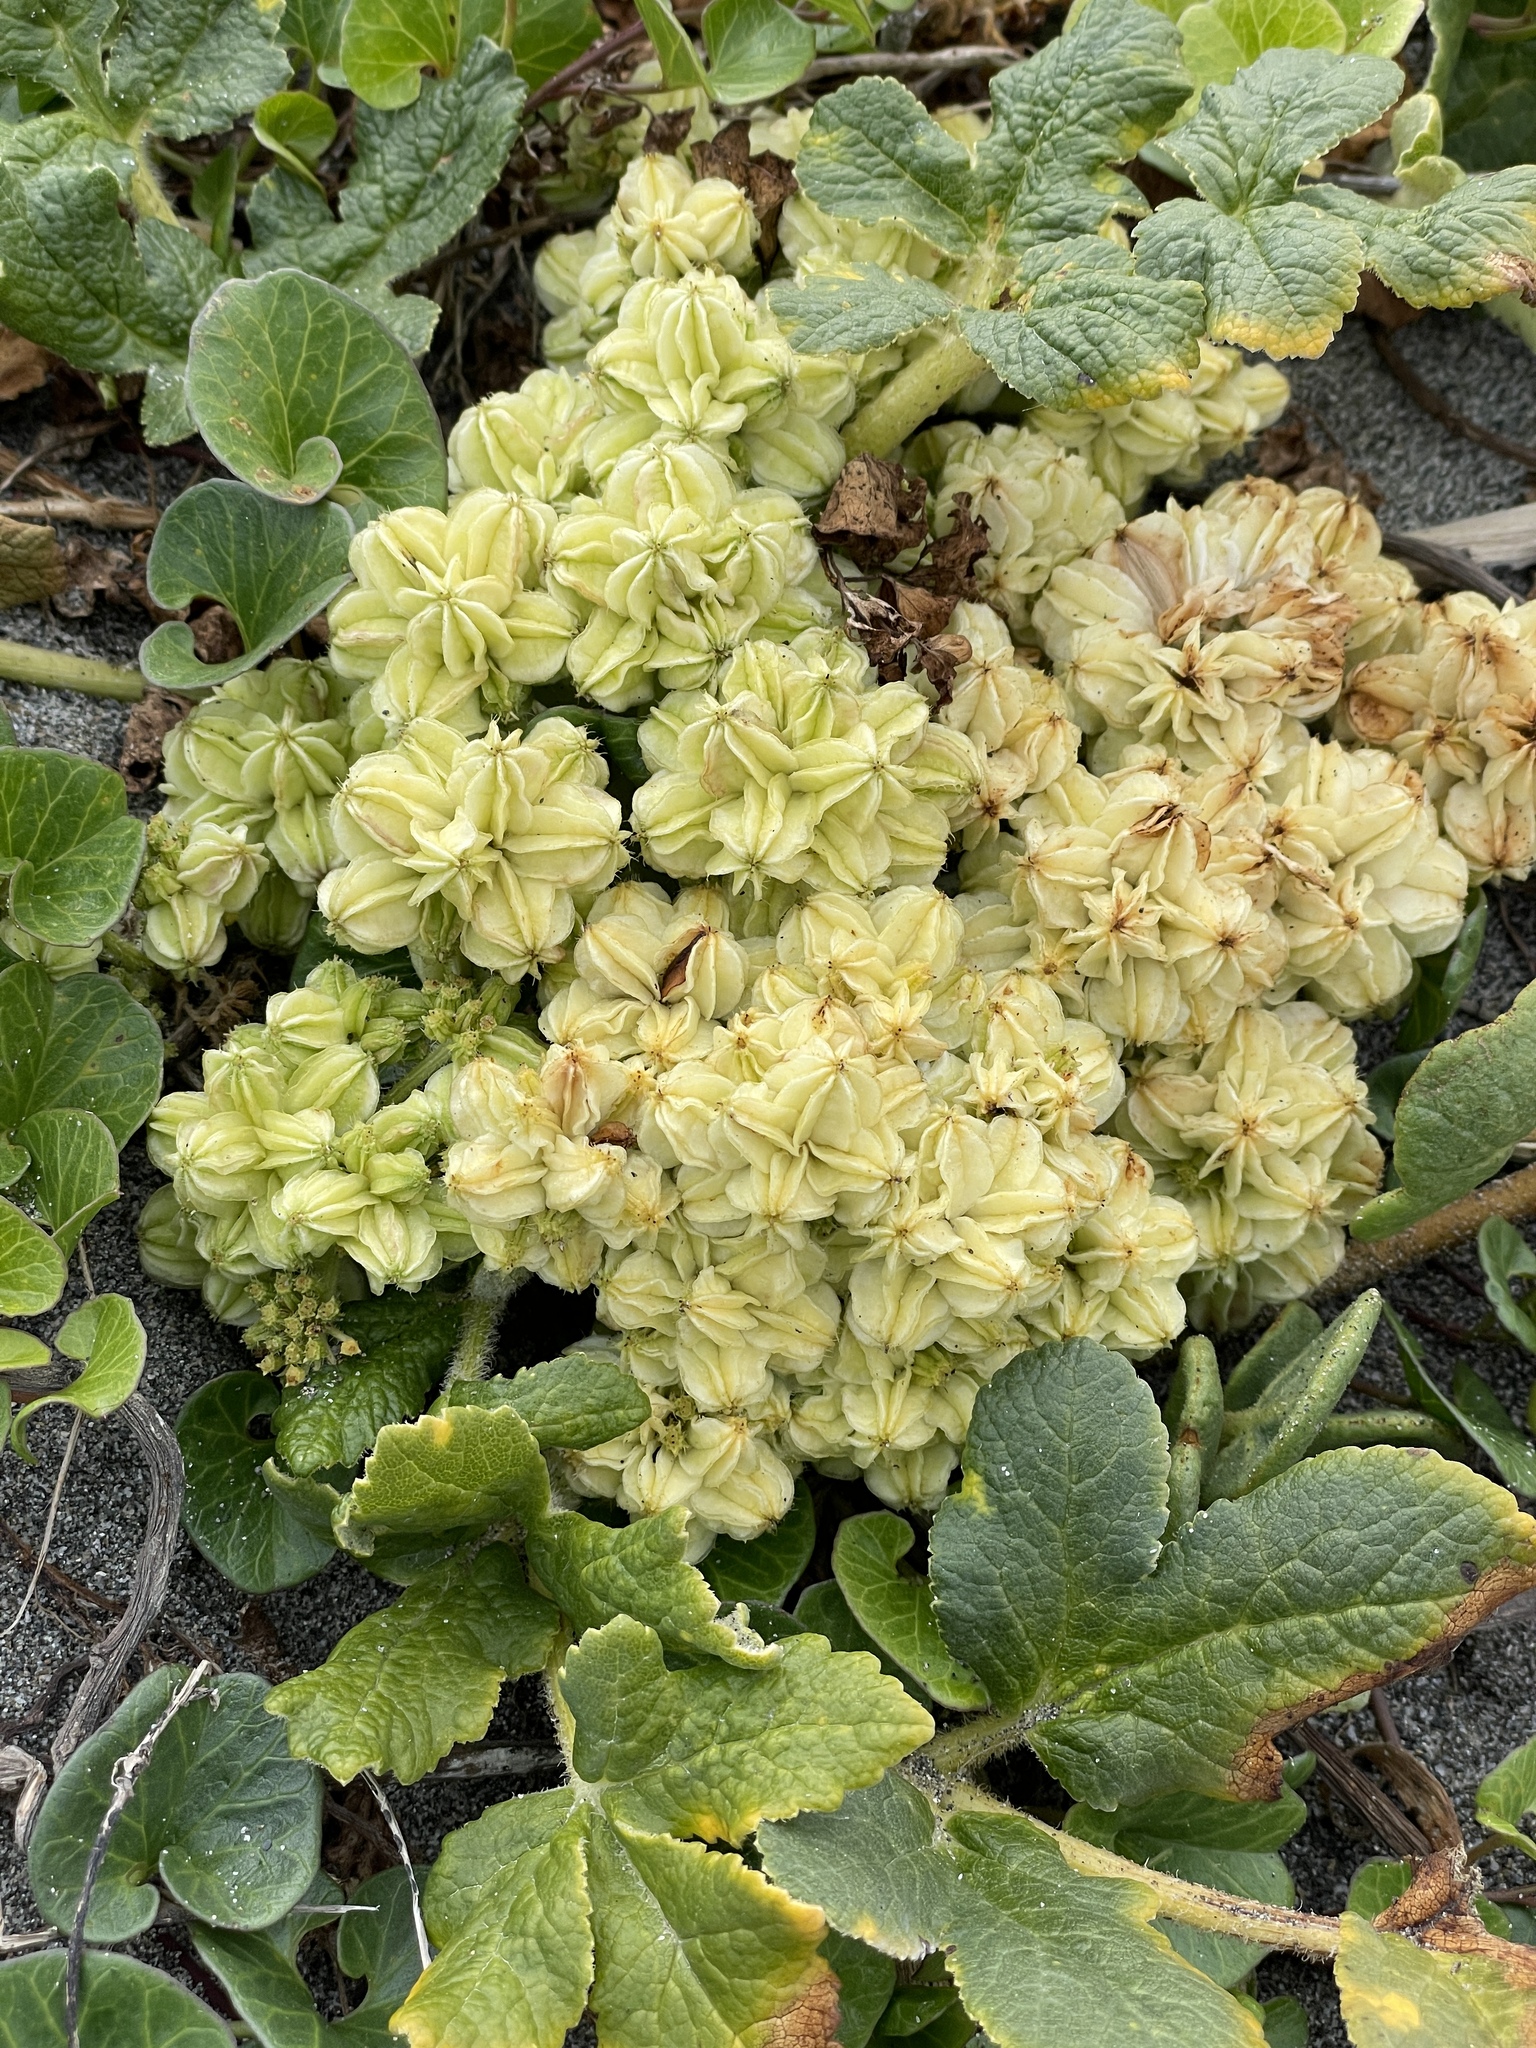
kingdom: Plantae
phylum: Tracheophyta
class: Magnoliopsida
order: Apiales
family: Apiaceae
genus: Angelica
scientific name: Angelica leiocarpa
